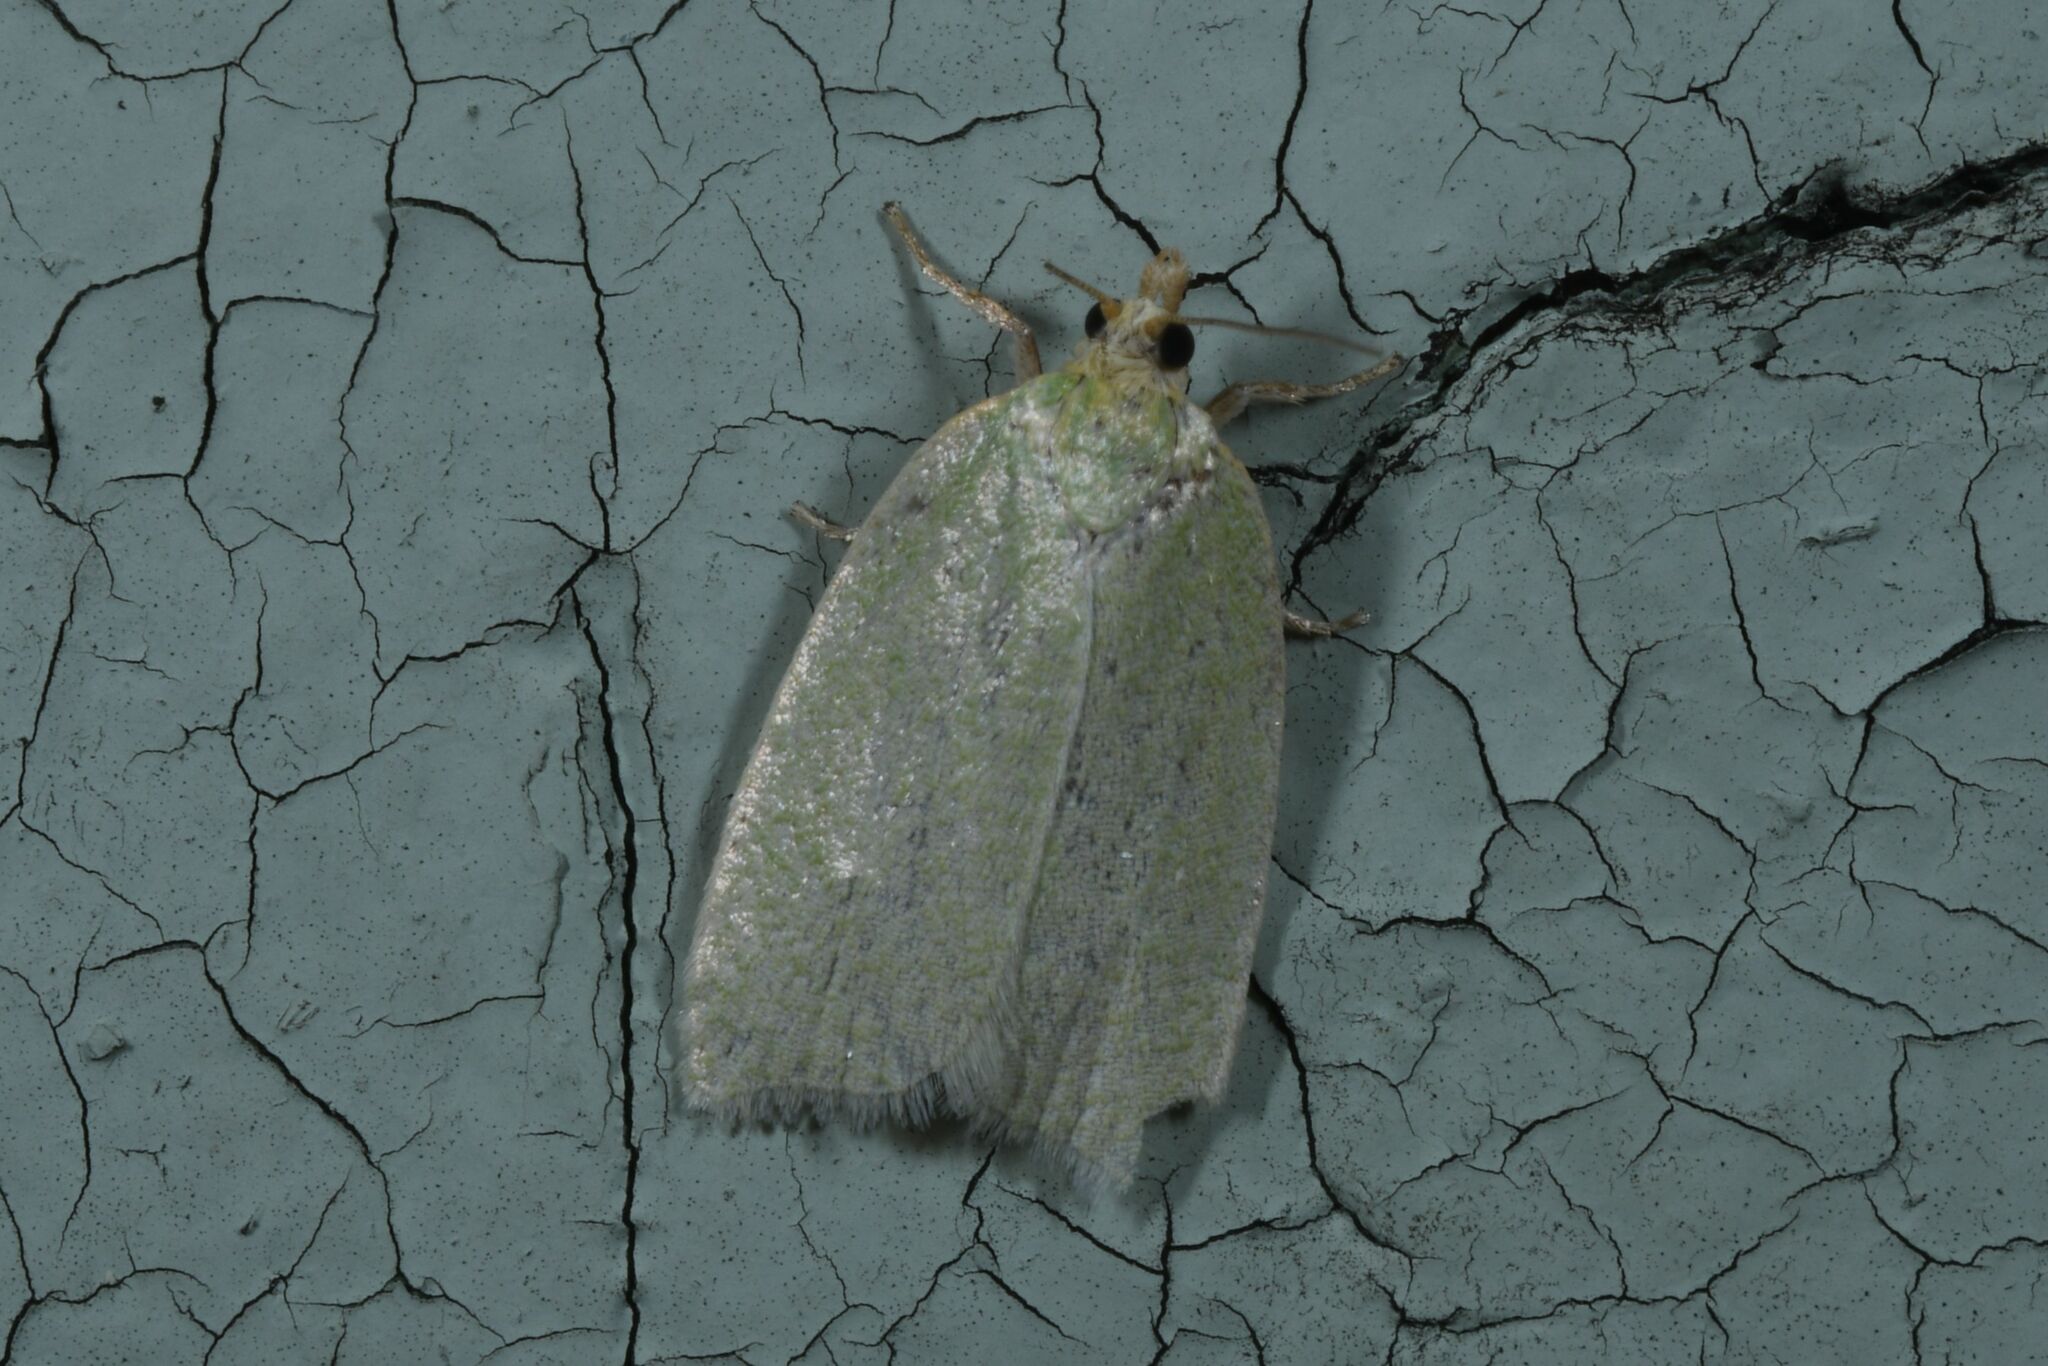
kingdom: Animalia
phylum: Arthropoda
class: Insecta
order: Lepidoptera
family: Tortricidae
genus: Tortrix
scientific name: Tortrix viridana
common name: Green oak tortrix
